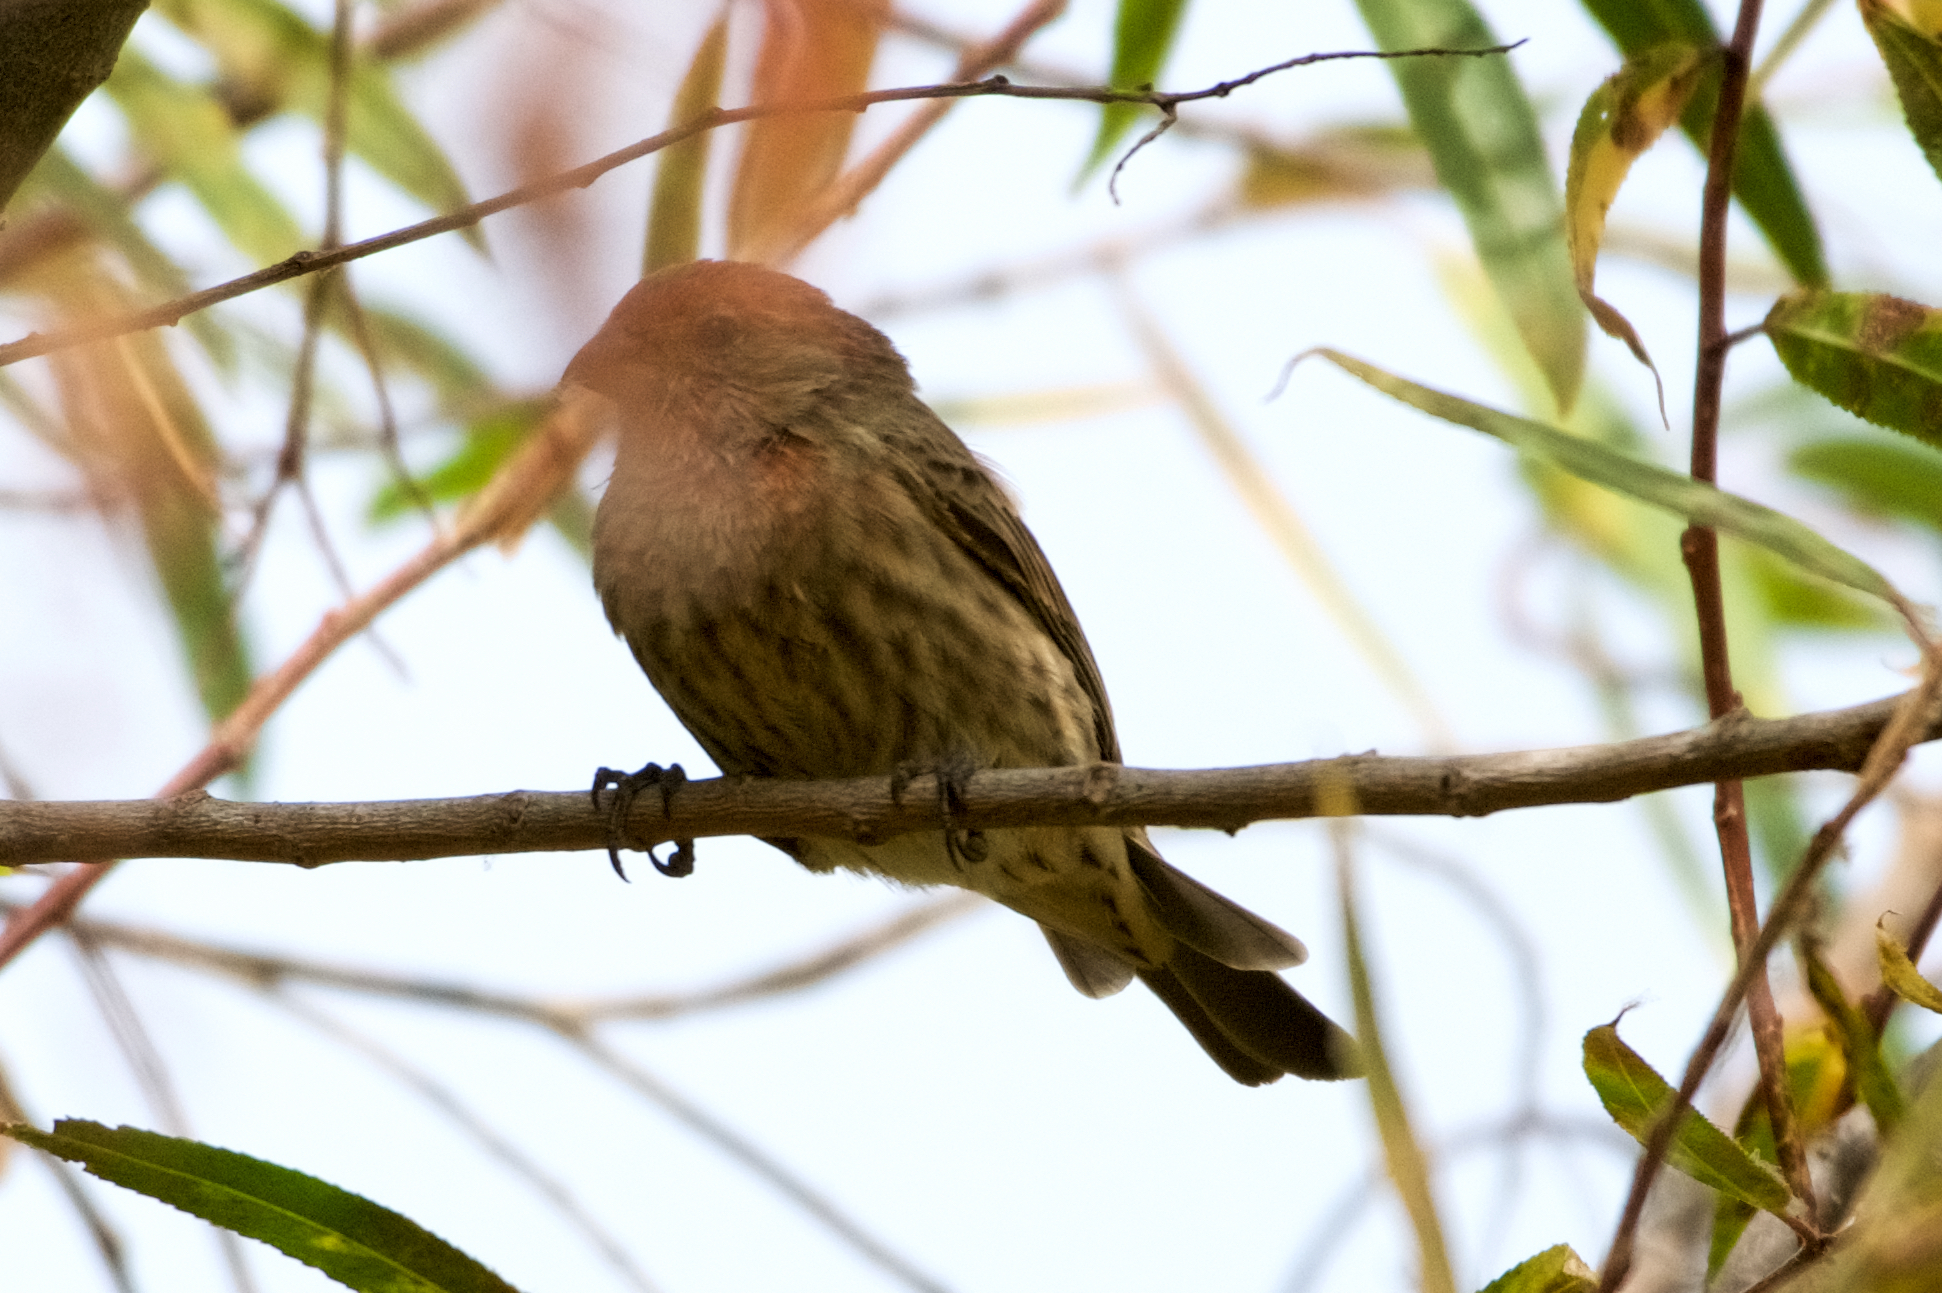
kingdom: Animalia
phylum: Chordata
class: Aves
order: Passeriformes
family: Fringillidae
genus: Haemorhous
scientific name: Haemorhous mexicanus
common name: House finch
